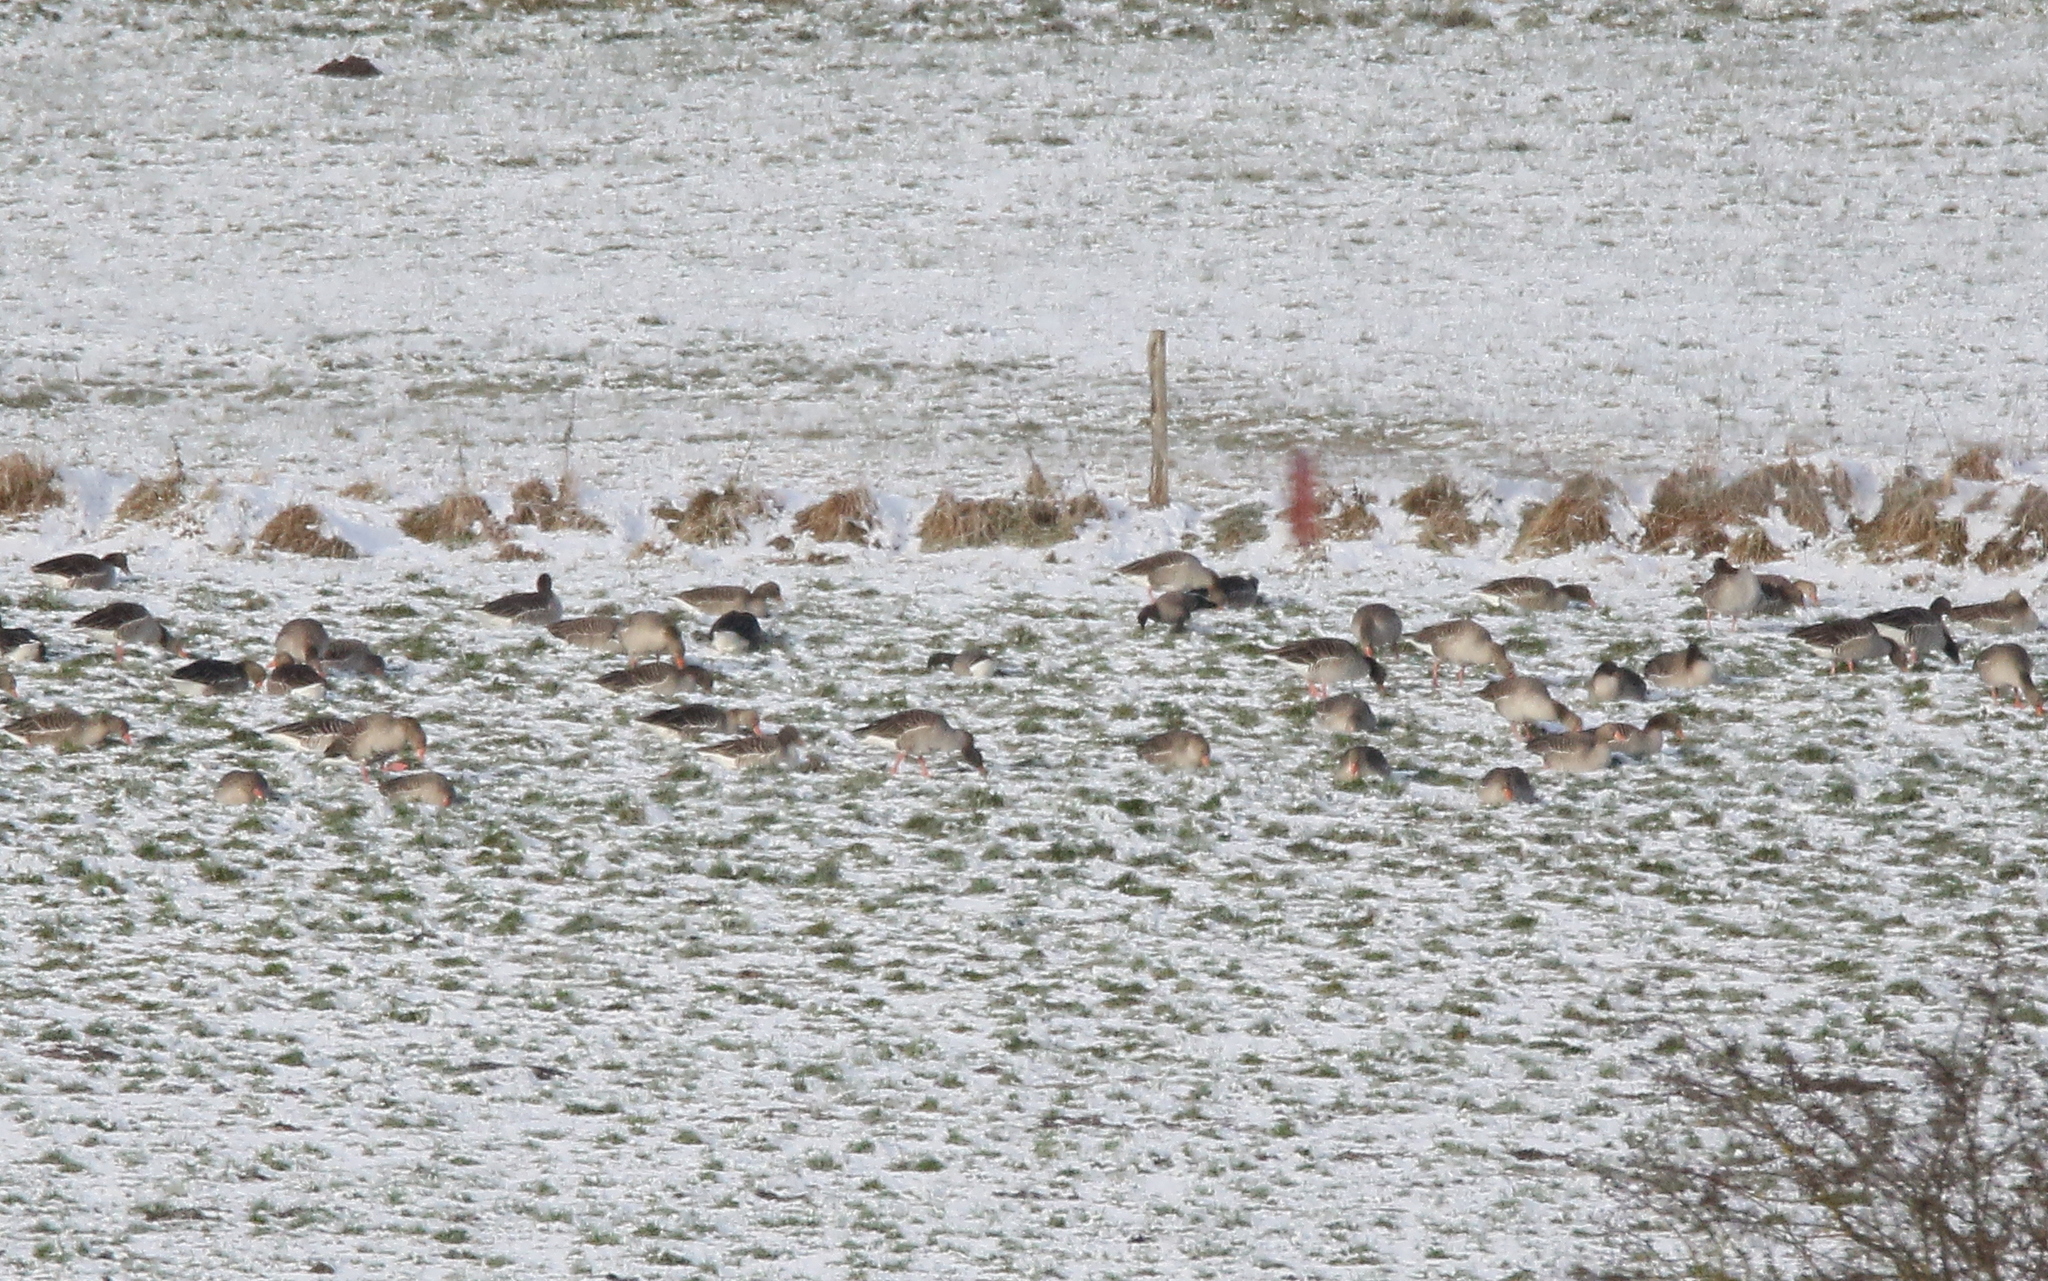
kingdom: Animalia
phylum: Chordata
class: Aves
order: Anseriformes
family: Anatidae
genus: Branta
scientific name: Branta bernicla
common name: Brant goose
